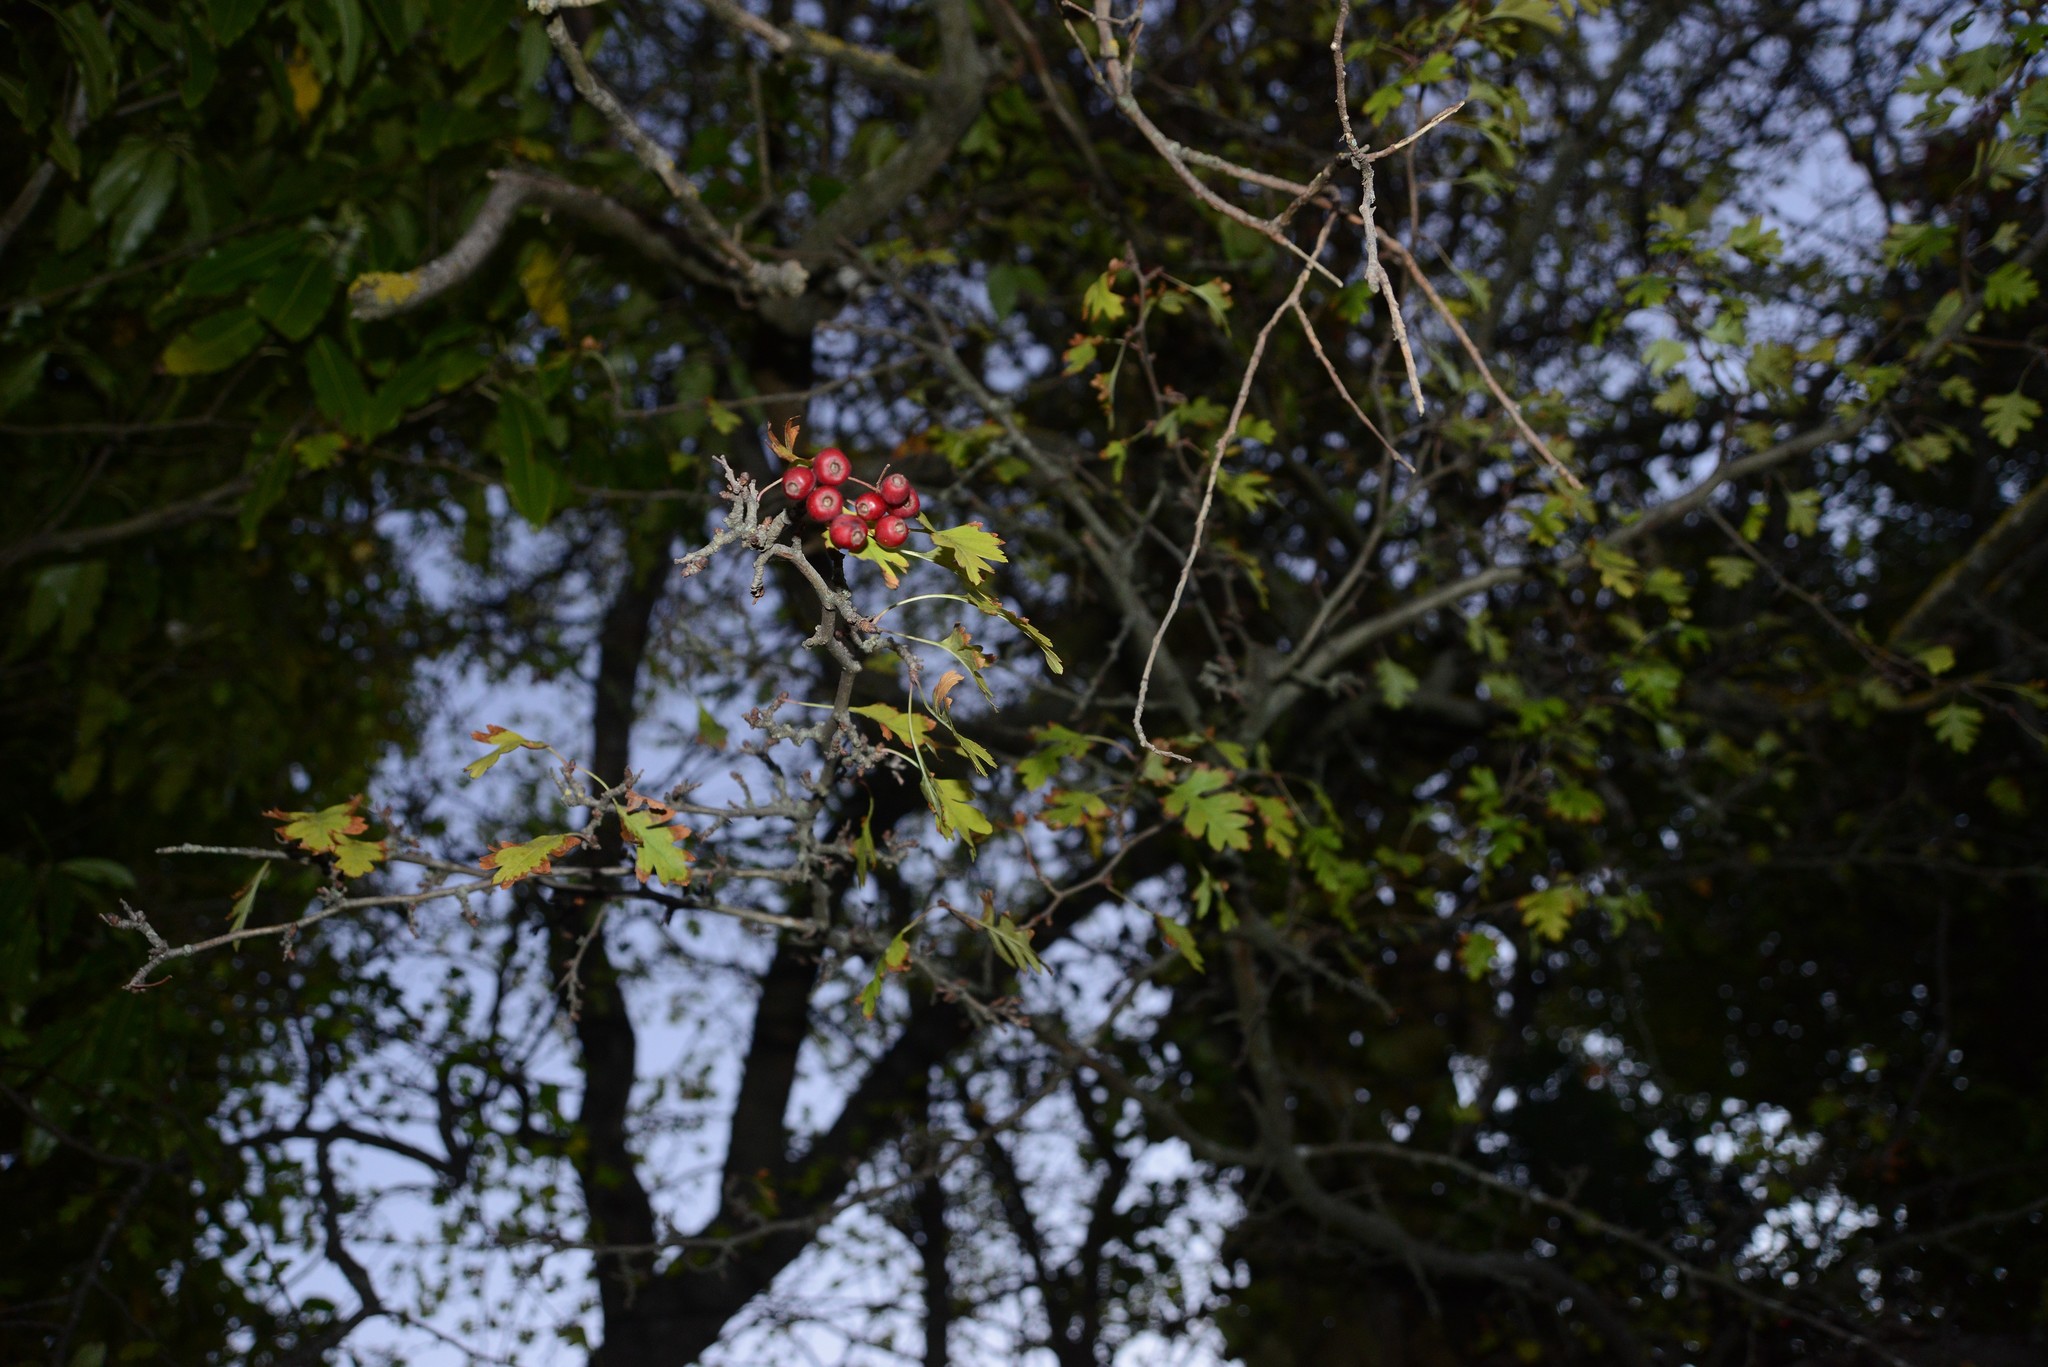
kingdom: Plantae
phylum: Tracheophyta
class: Magnoliopsida
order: Rosales
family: Rosaceae
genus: Crataegus
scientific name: Crataegus monogyna
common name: Hawthorn
